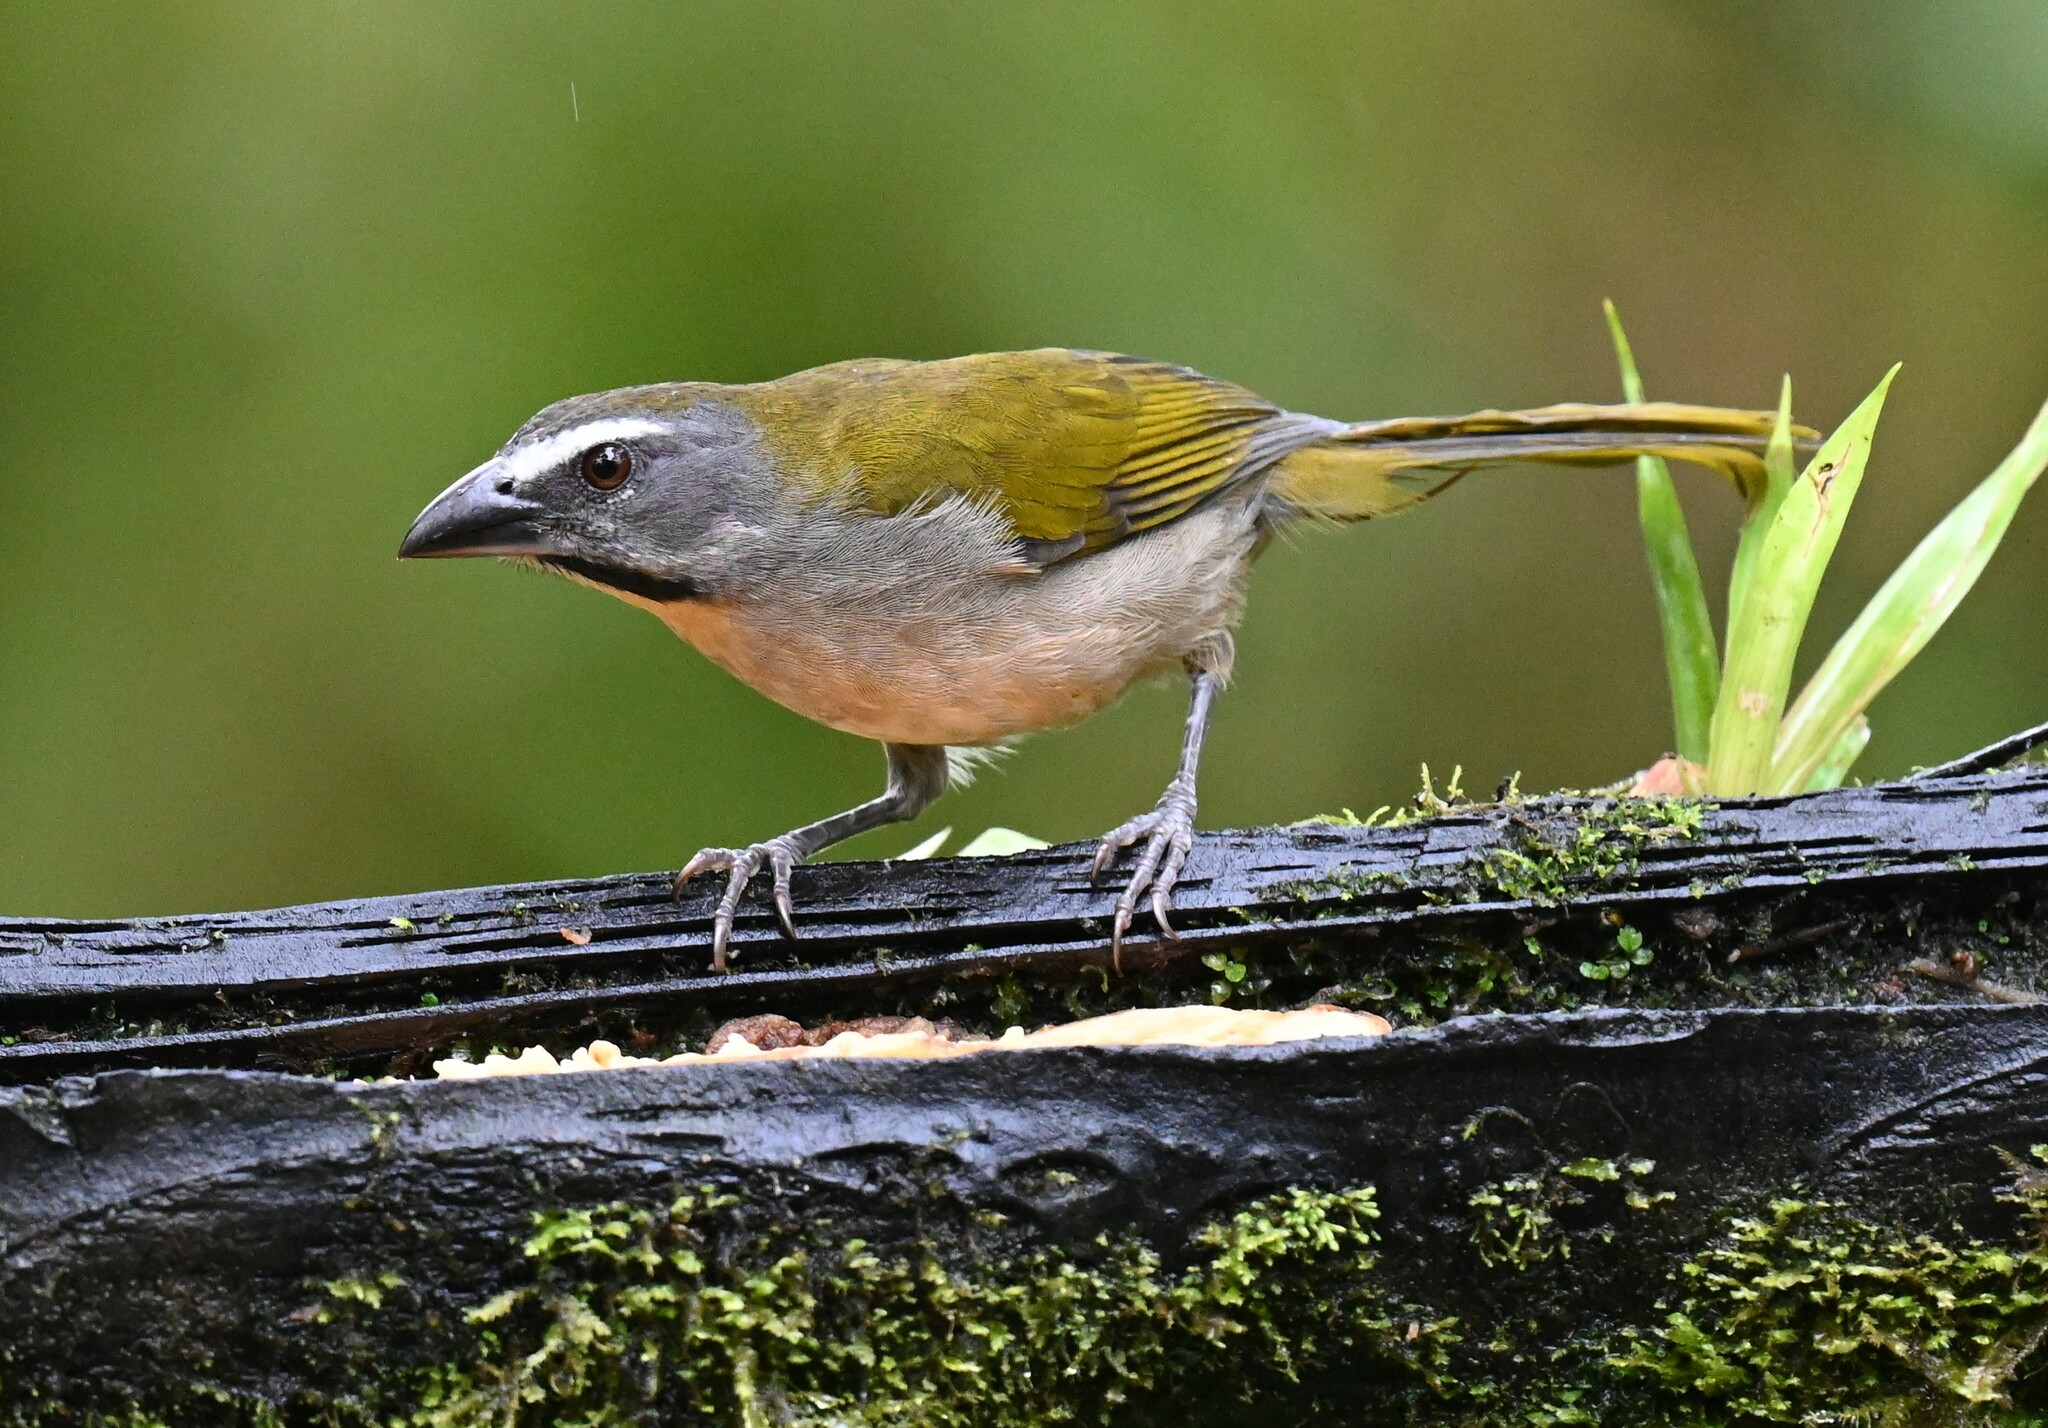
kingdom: Animalia
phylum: Chordata
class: Aves
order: Passeriformes
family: Thraupidae
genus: Saltator
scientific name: Saltator maximus
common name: Buff-throated saltator
